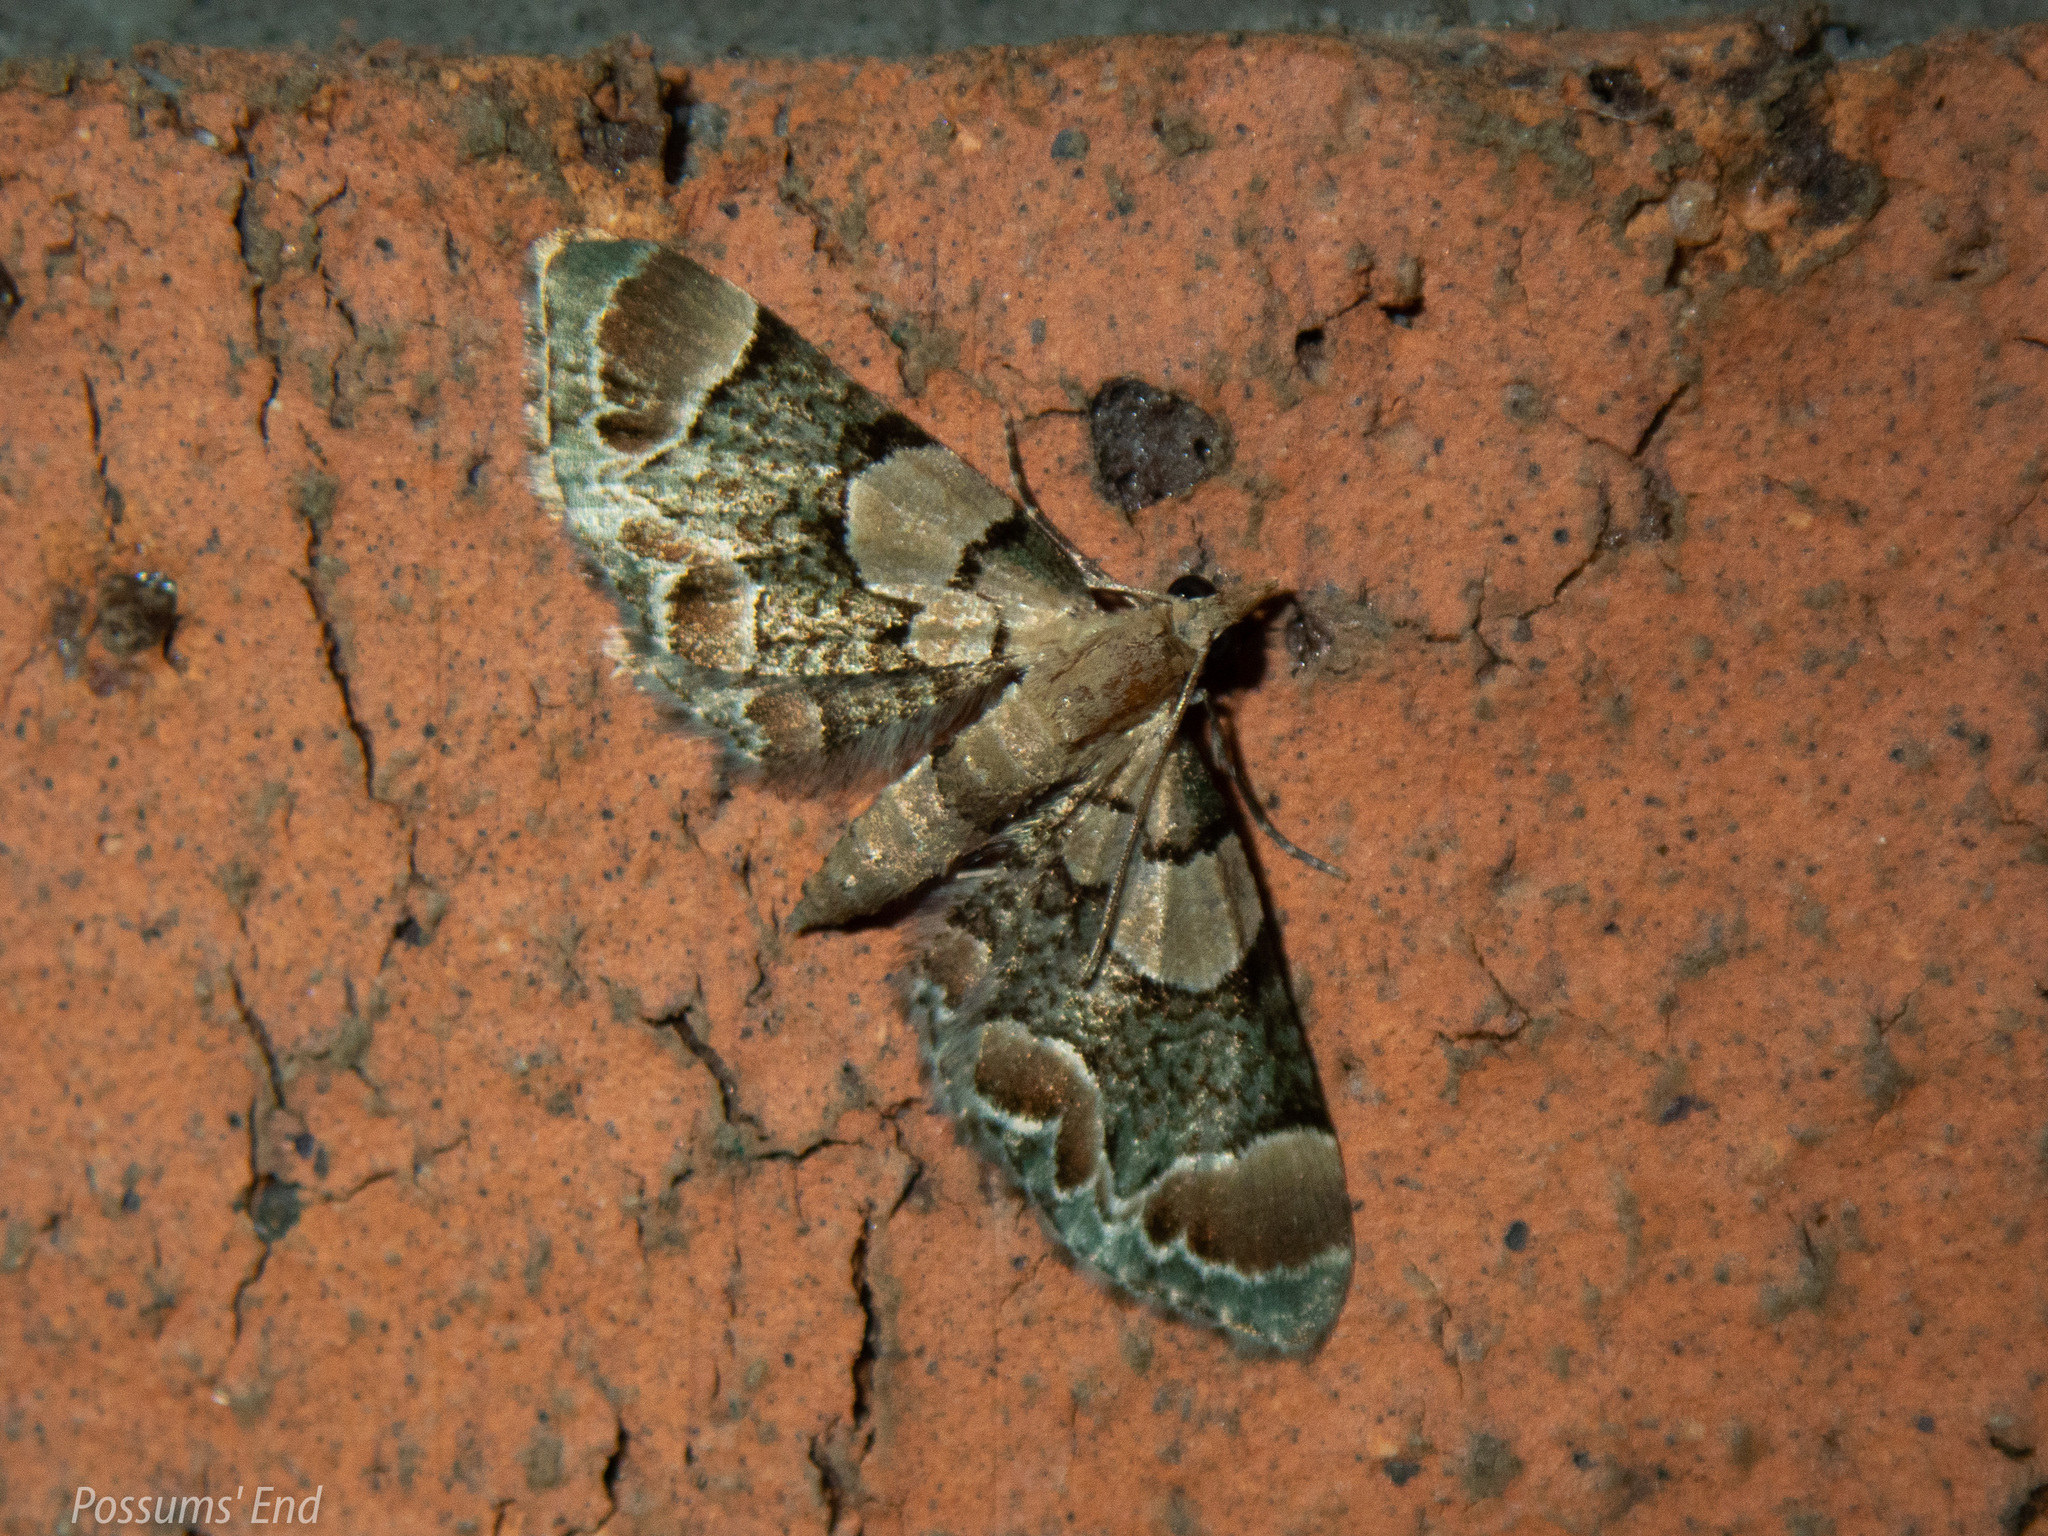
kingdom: Animalia
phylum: Arthropoda
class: Insecta
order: Lepidoptera
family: Geometridae
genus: Chloroclystis
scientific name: Chloroclystis
